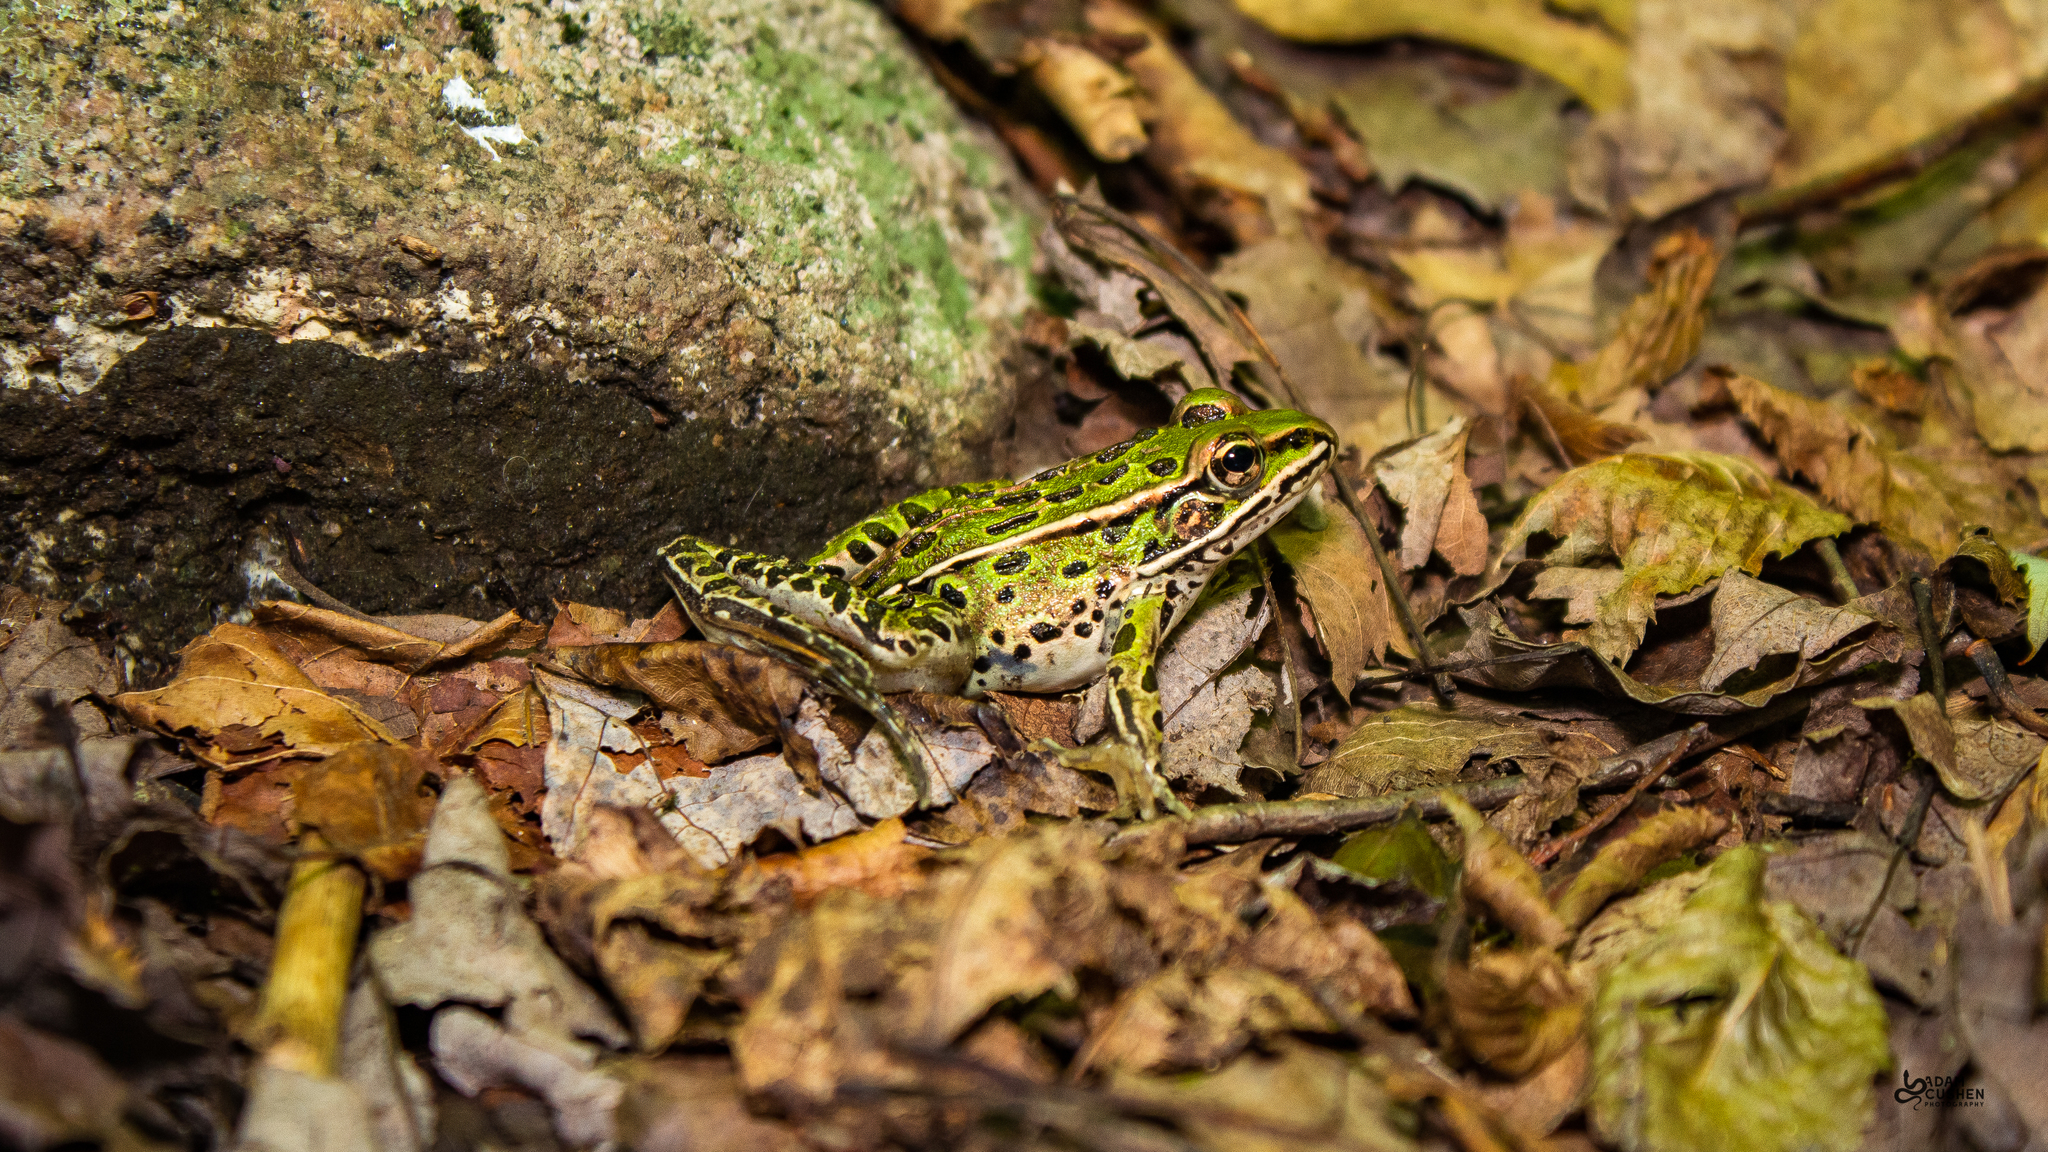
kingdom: Animalia
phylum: Chordata
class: Amphibia
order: Anura
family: Ranidae
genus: Lithobates
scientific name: Lithobates pipiens
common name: Northern leopard frog
